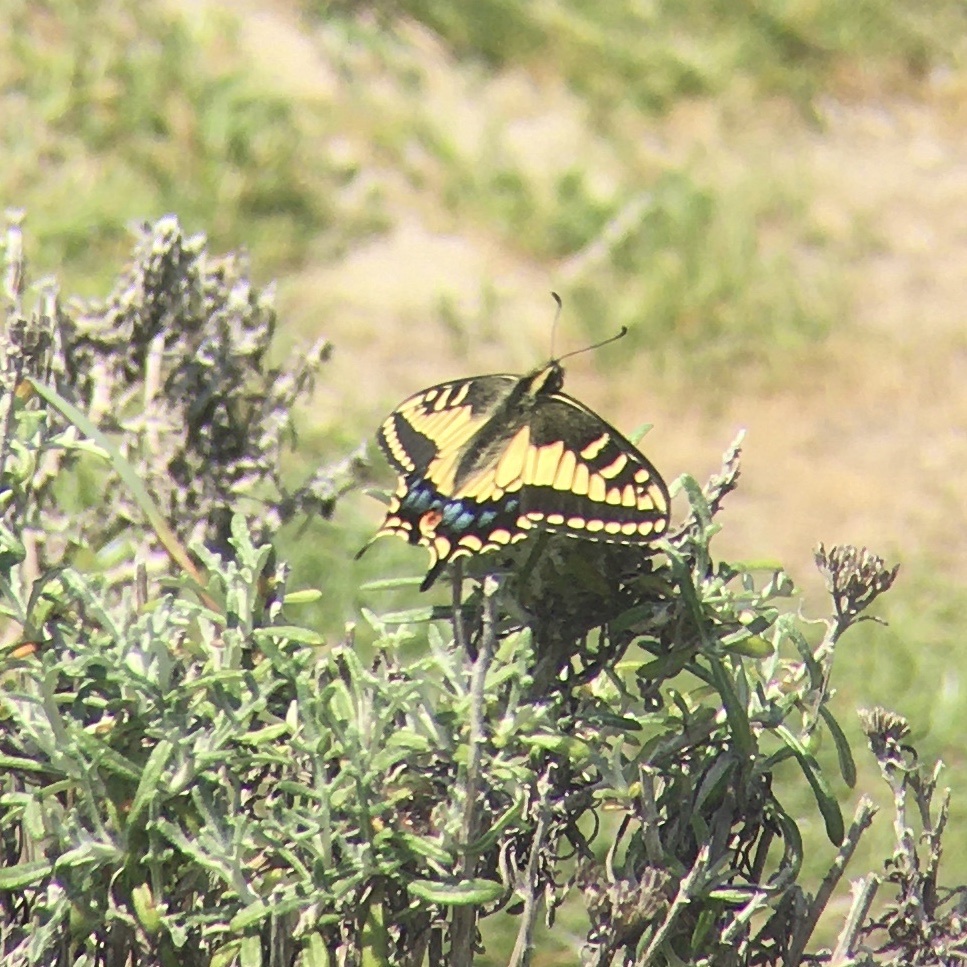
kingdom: Animalia
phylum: Arthropoda
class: Insecta
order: Lepidoptera
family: Papilionidae
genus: Papilio
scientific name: Papilio zelicaon
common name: Anise swallowtail
